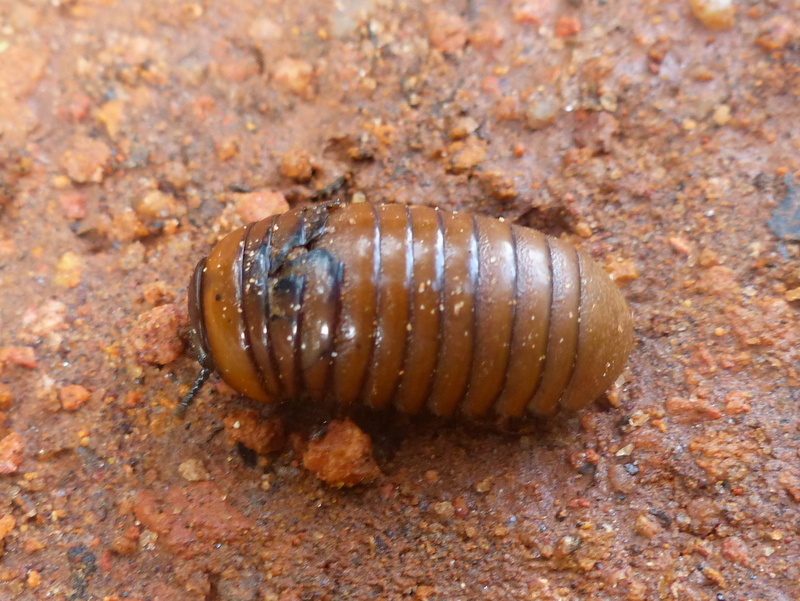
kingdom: Animalia
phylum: Arthropoda
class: Diplopoda
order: Sphaerotheriida
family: Arthrosphaeridae
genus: Arthrosphaera
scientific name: Arthrosphaera brandtii
